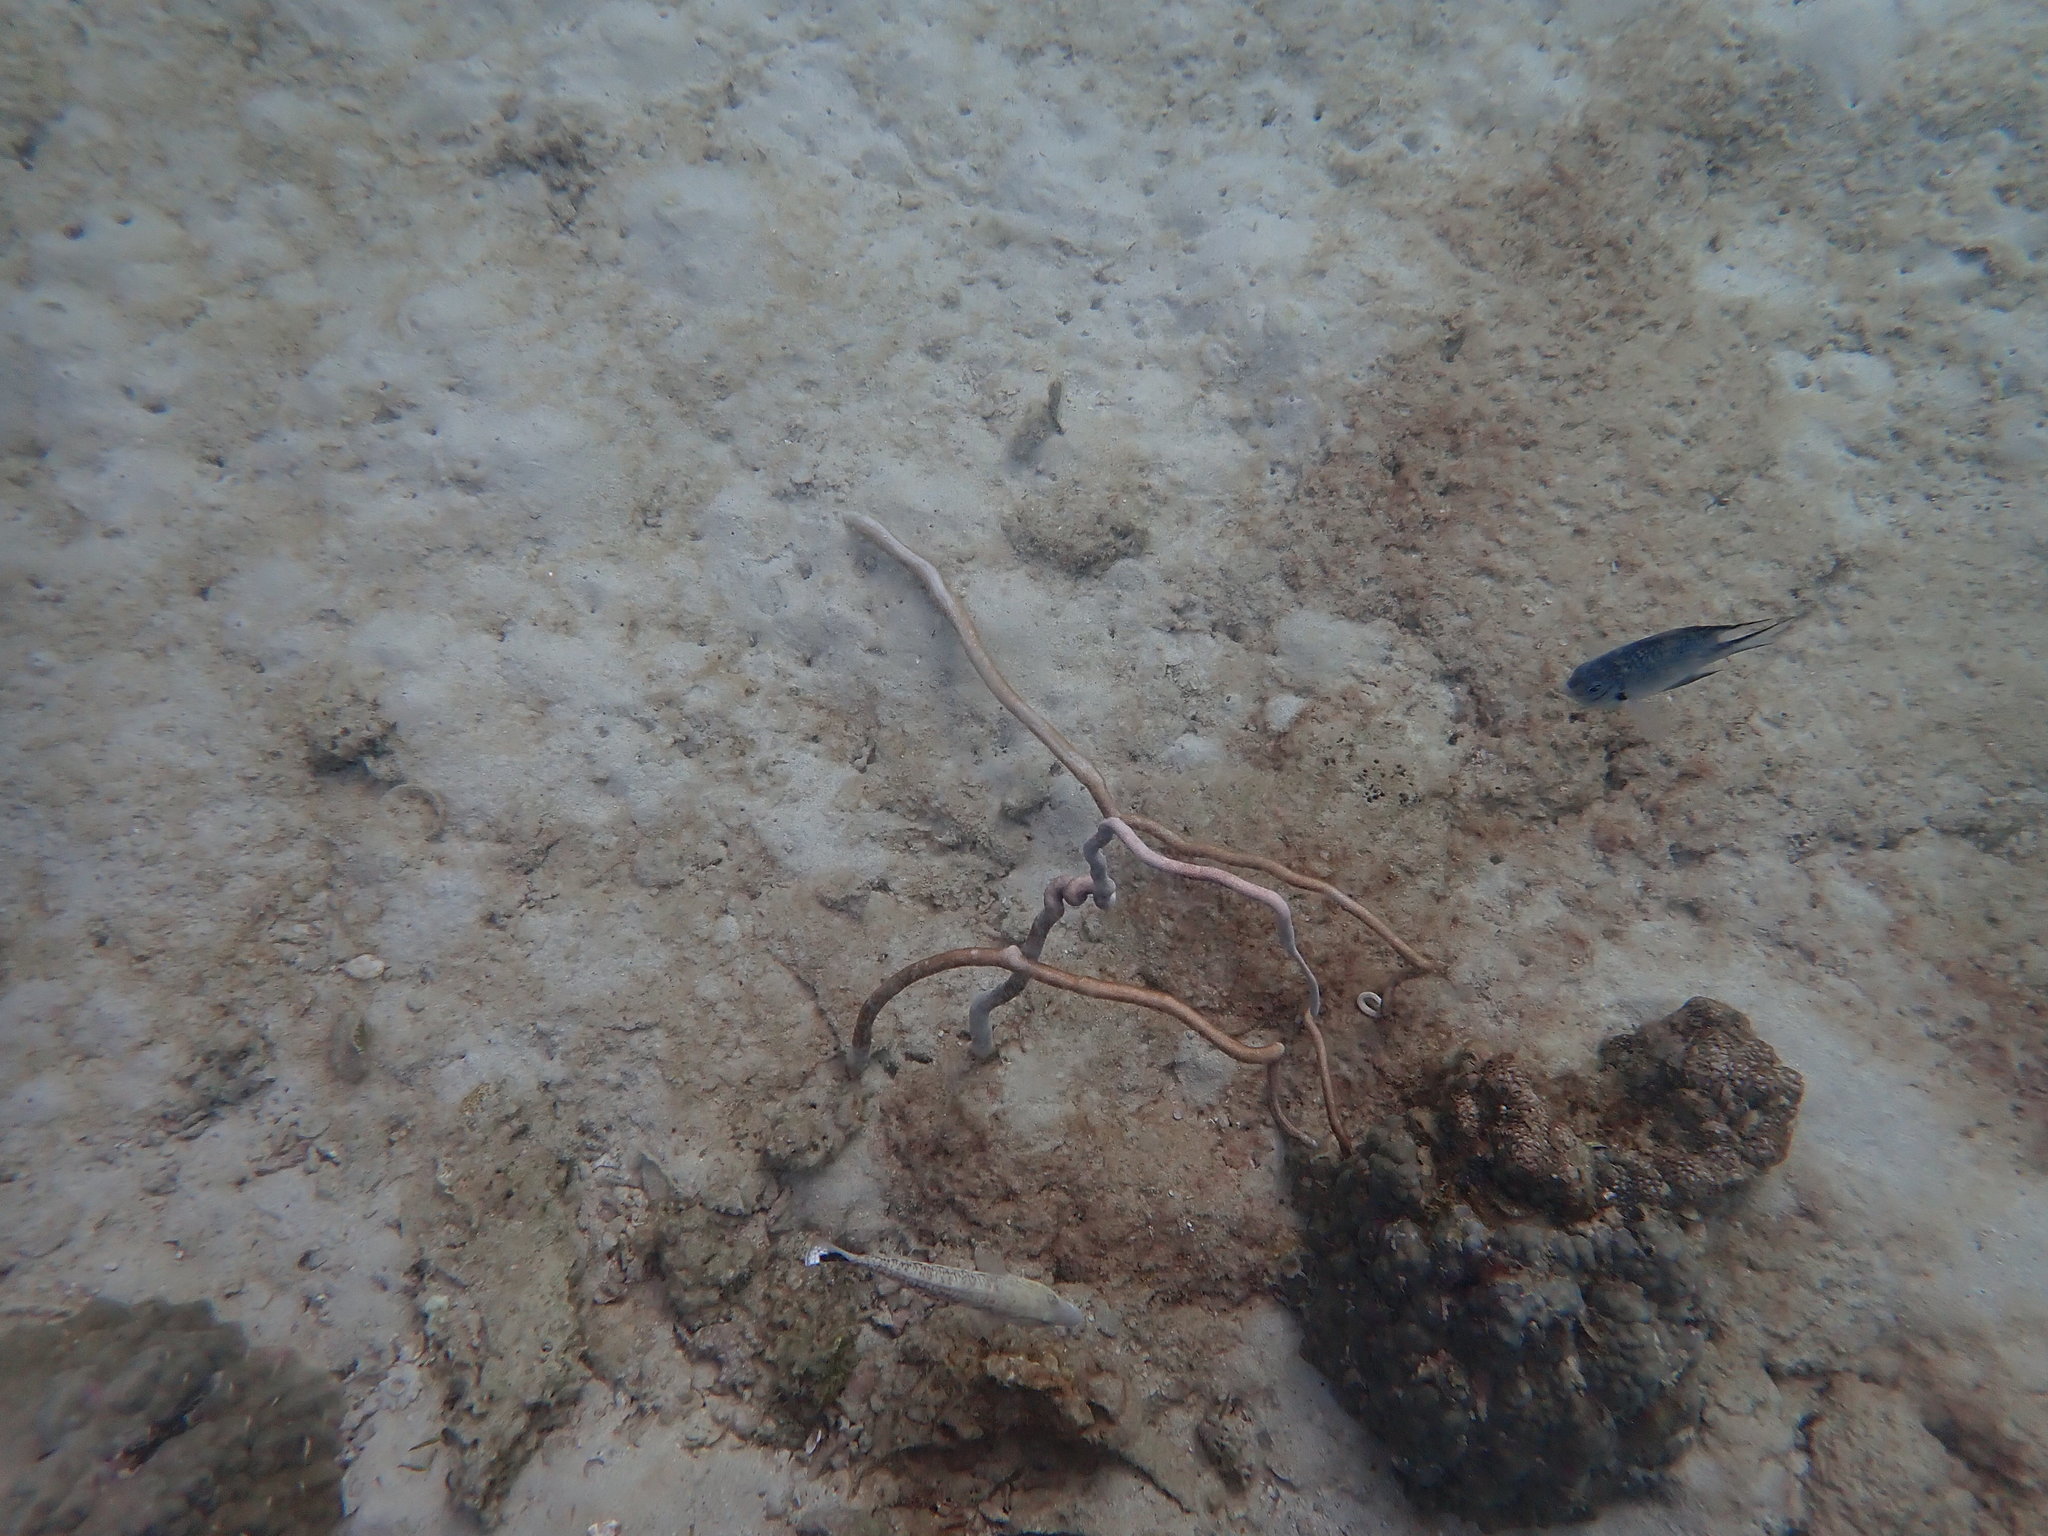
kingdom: Animalia
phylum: Cnidaria
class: Anthozoa
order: Scleralcyonacea
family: Ellisellidae
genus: Junceella
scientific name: Junceella fragilis
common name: Fragile sea whip
